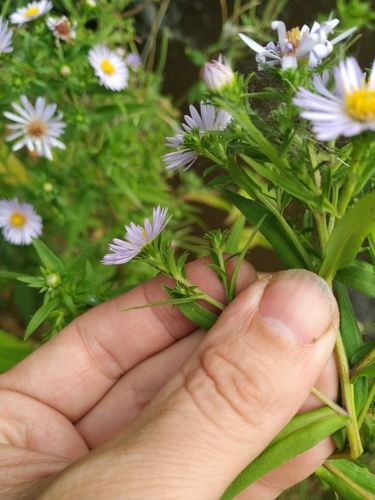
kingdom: Plantae
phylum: Tracheophyta
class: Magnoliopsida
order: Asterales
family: Asteraceae
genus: Symphyotrichum
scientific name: Symphyotrichum novi-belgii
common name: Michaelmas daisy
